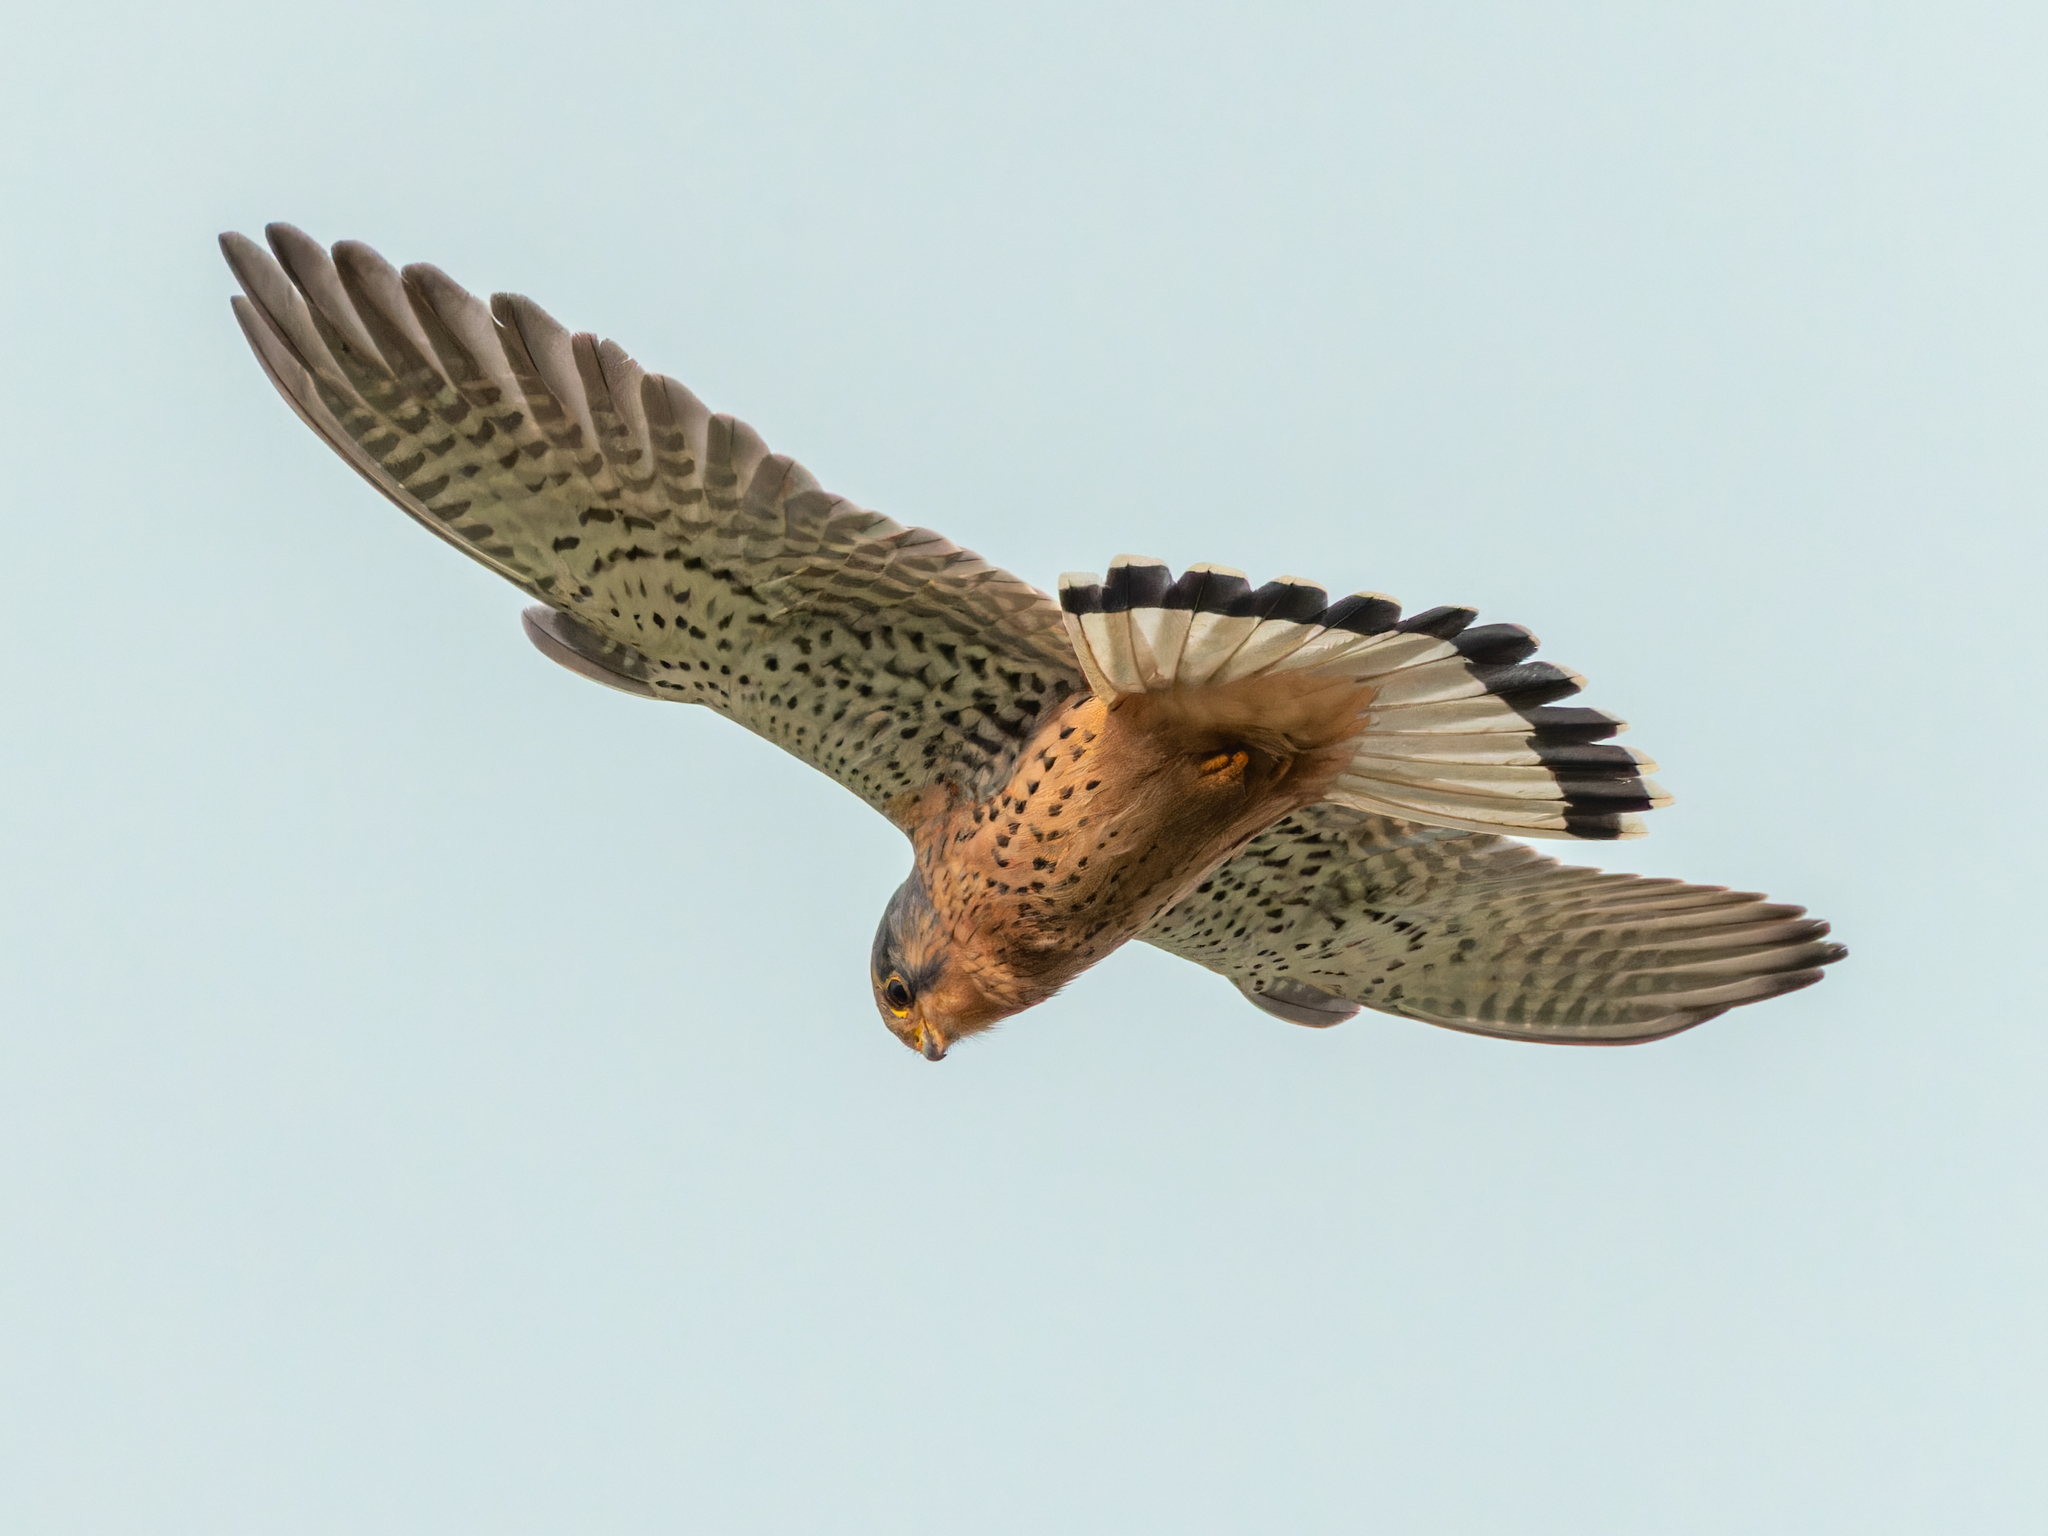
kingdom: Animalia
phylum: Chordata
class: Aves
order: Falconiformes
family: Falconidae
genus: Falco
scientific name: Falco tinnunculus
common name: Common kestrel
